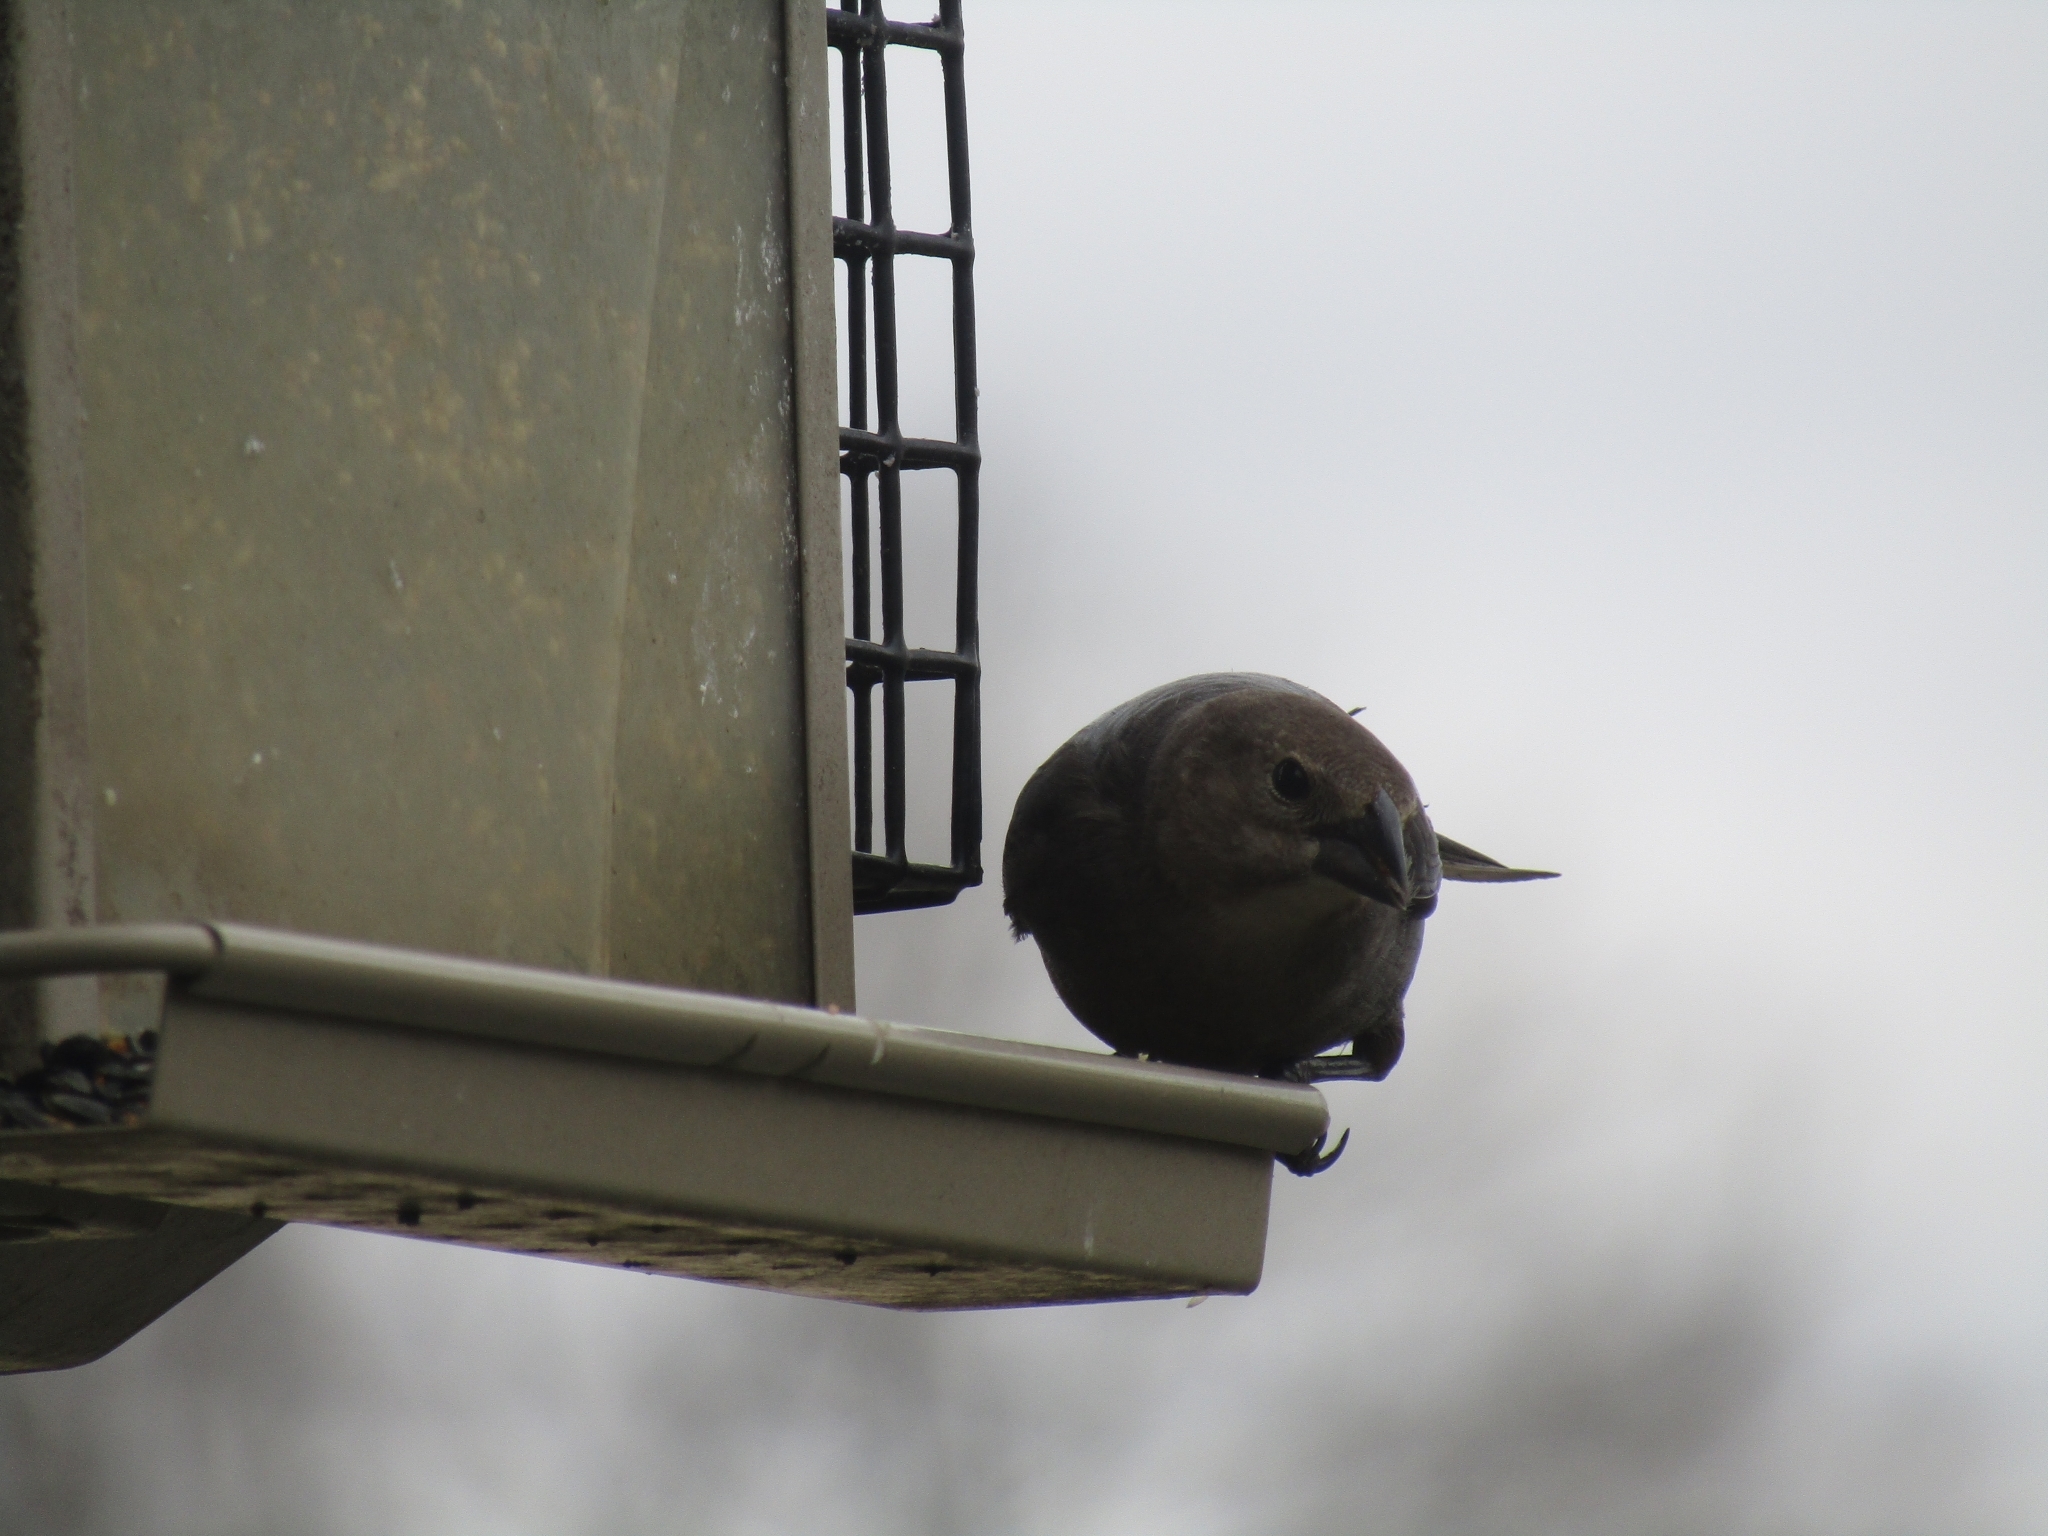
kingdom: Animalia
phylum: Chordata
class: Aves
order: Passeriformes
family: Icteridae
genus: Molothrus
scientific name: Molothrus ater
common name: Brown-headed cowbird
